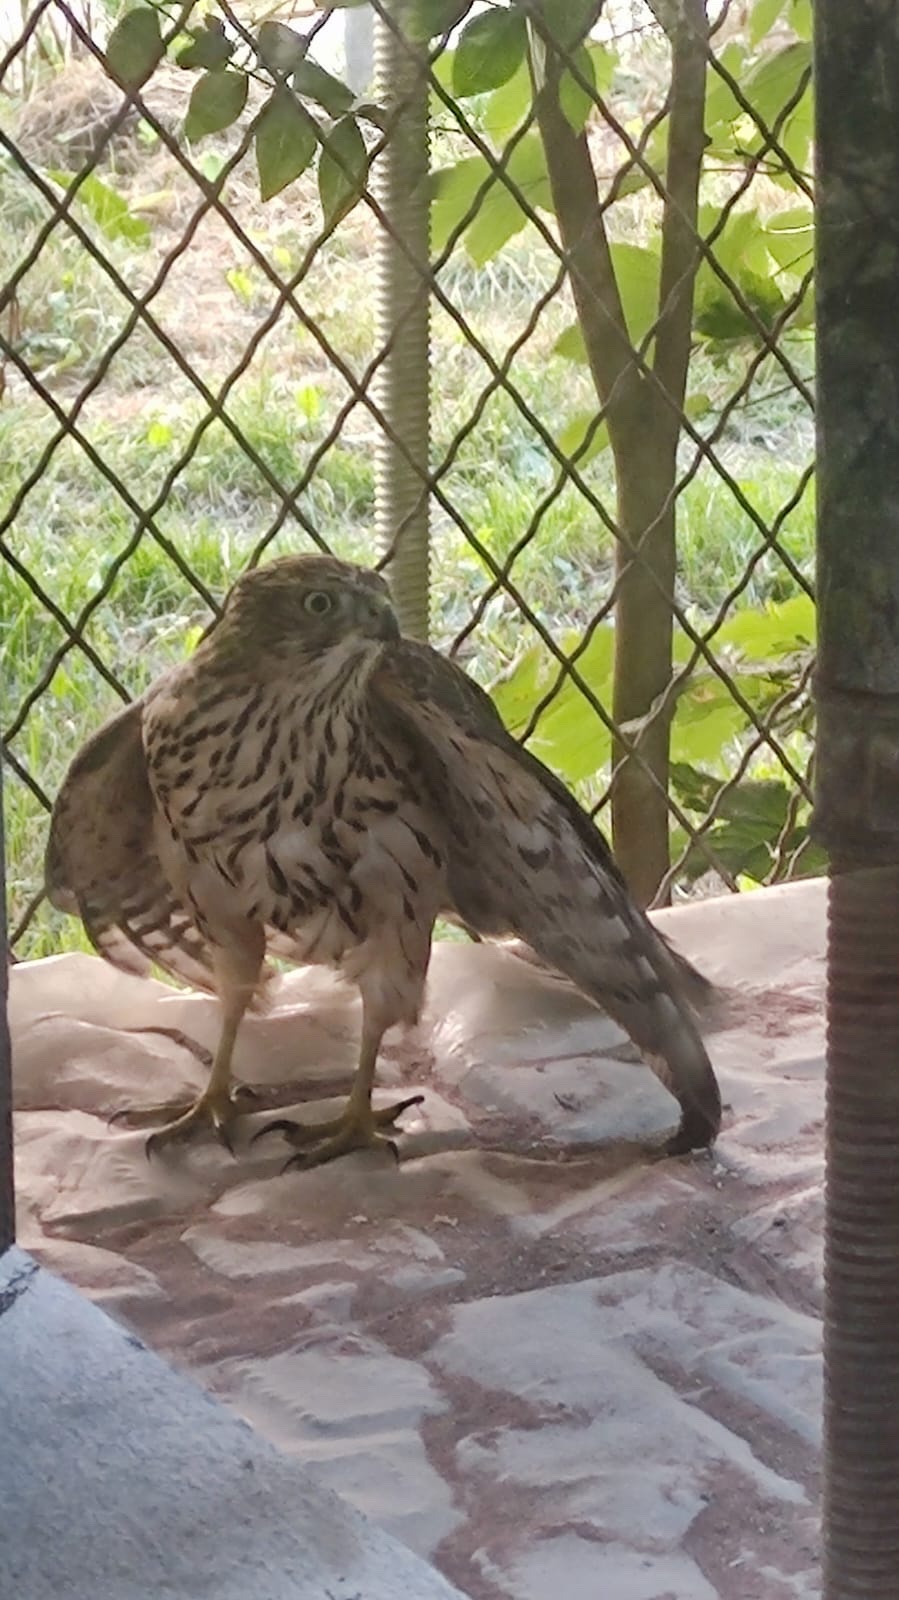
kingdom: Animalia
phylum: Chordata
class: Aves
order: Accipitriformes
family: Accipitridae
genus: Accipiter
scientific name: Accipiter gentilis
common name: Northern goshawk
